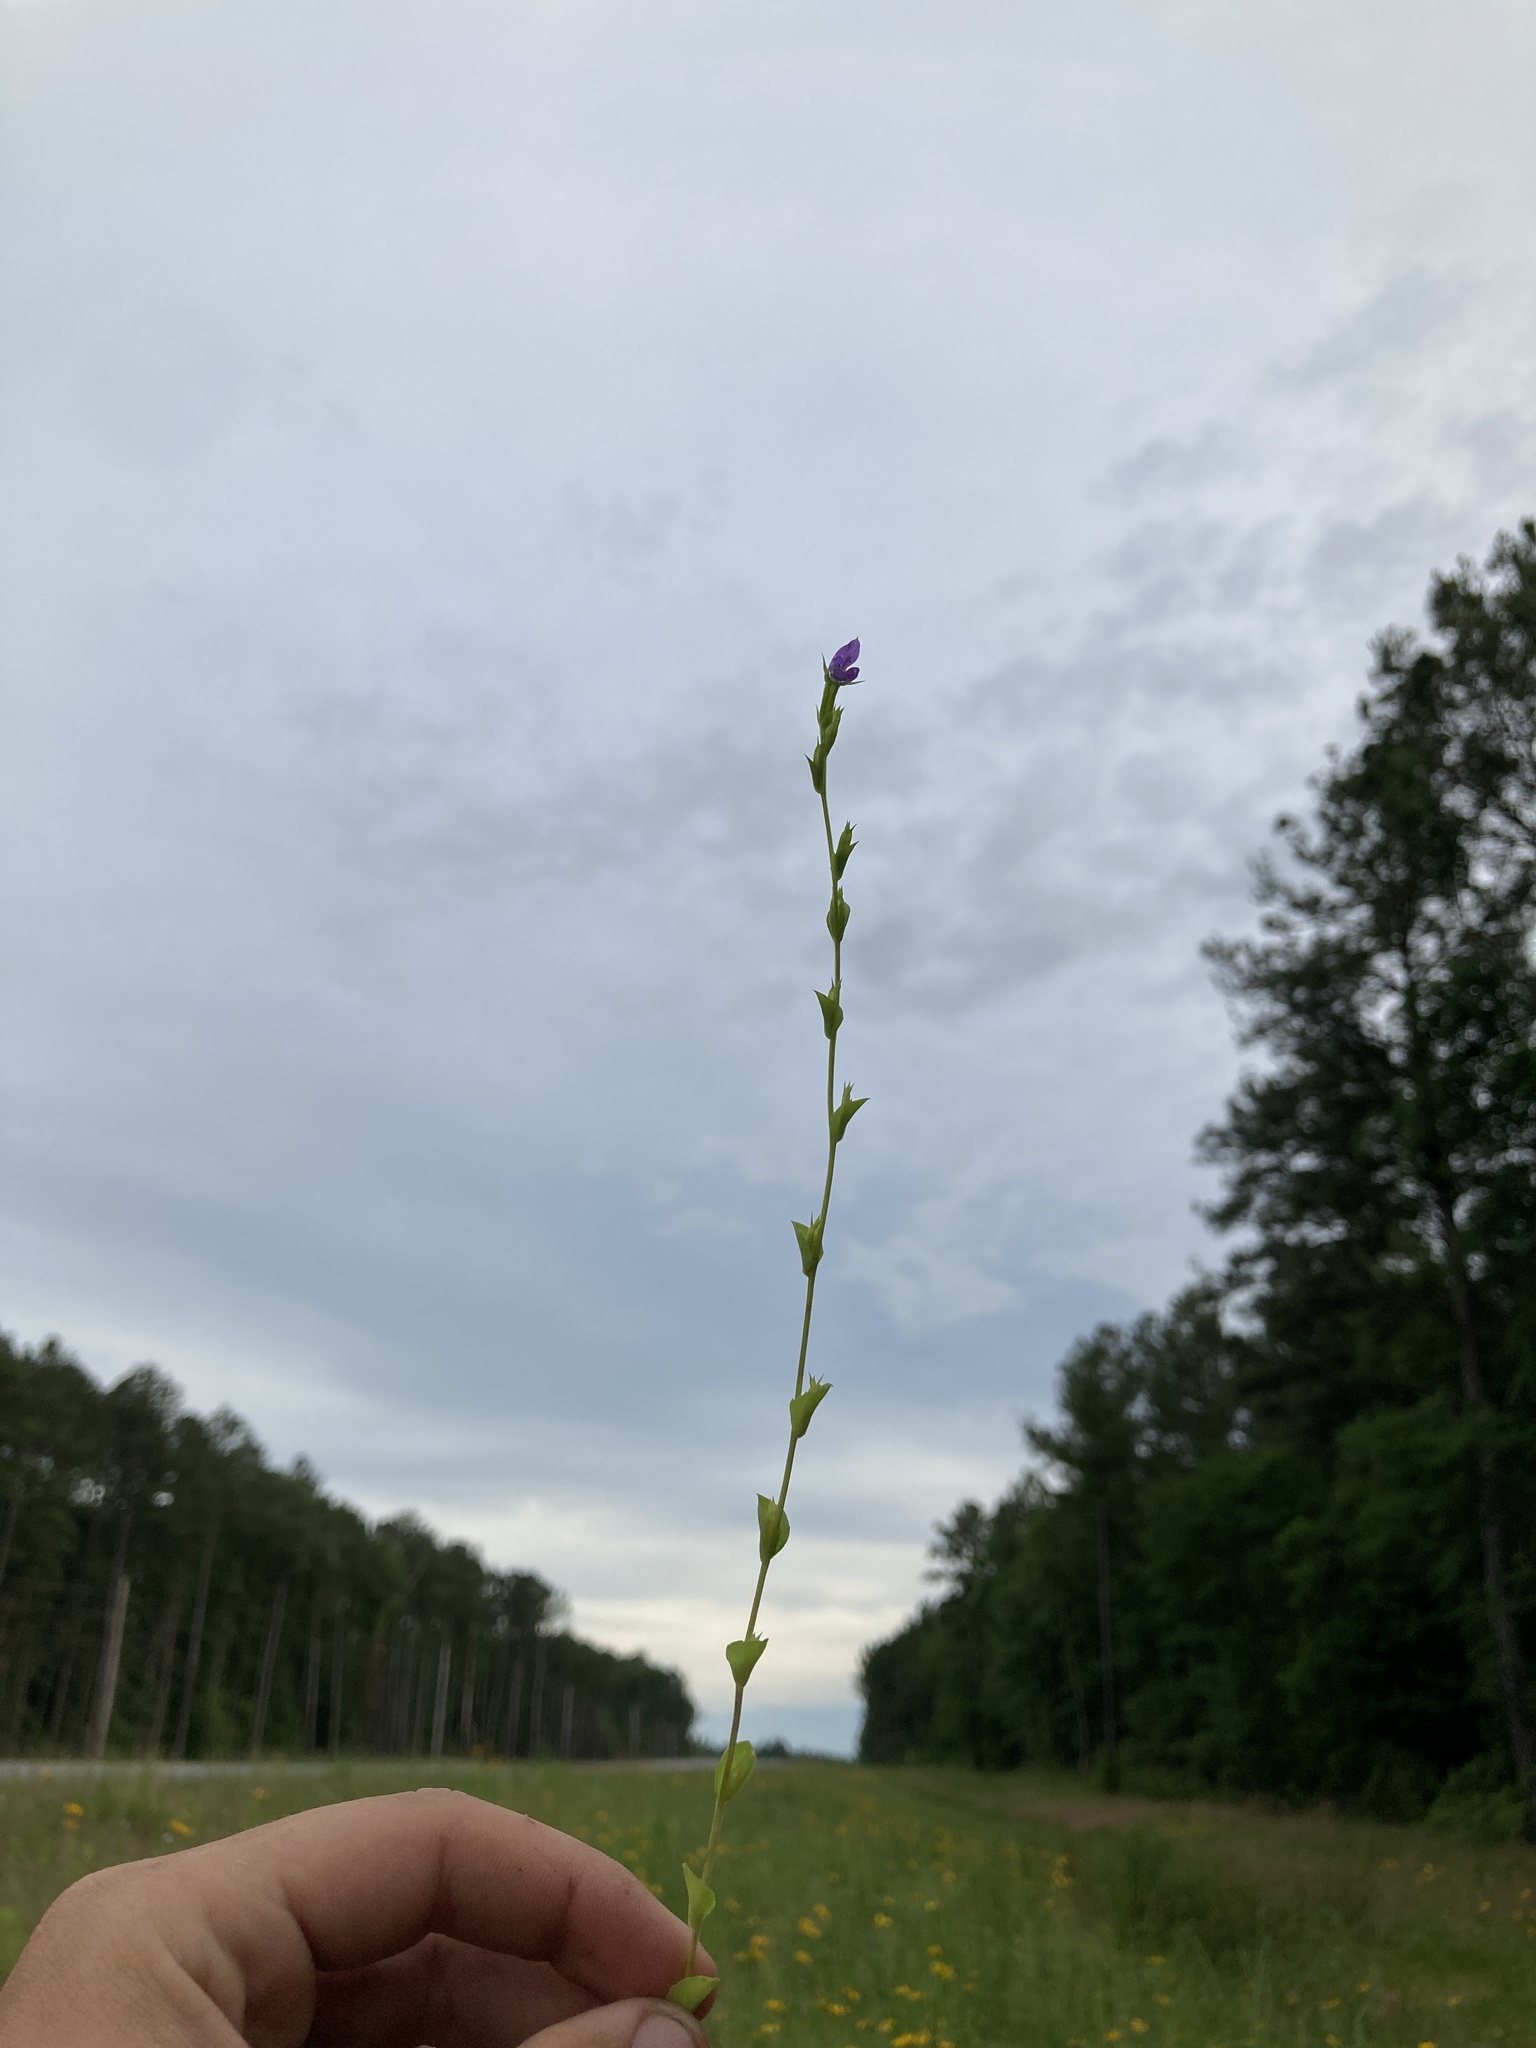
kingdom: Plantae
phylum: Tracheophyta
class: Magnoliopsida
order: Asterales
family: Campanulaceae
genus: Triodanis
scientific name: Triodanis biflora
